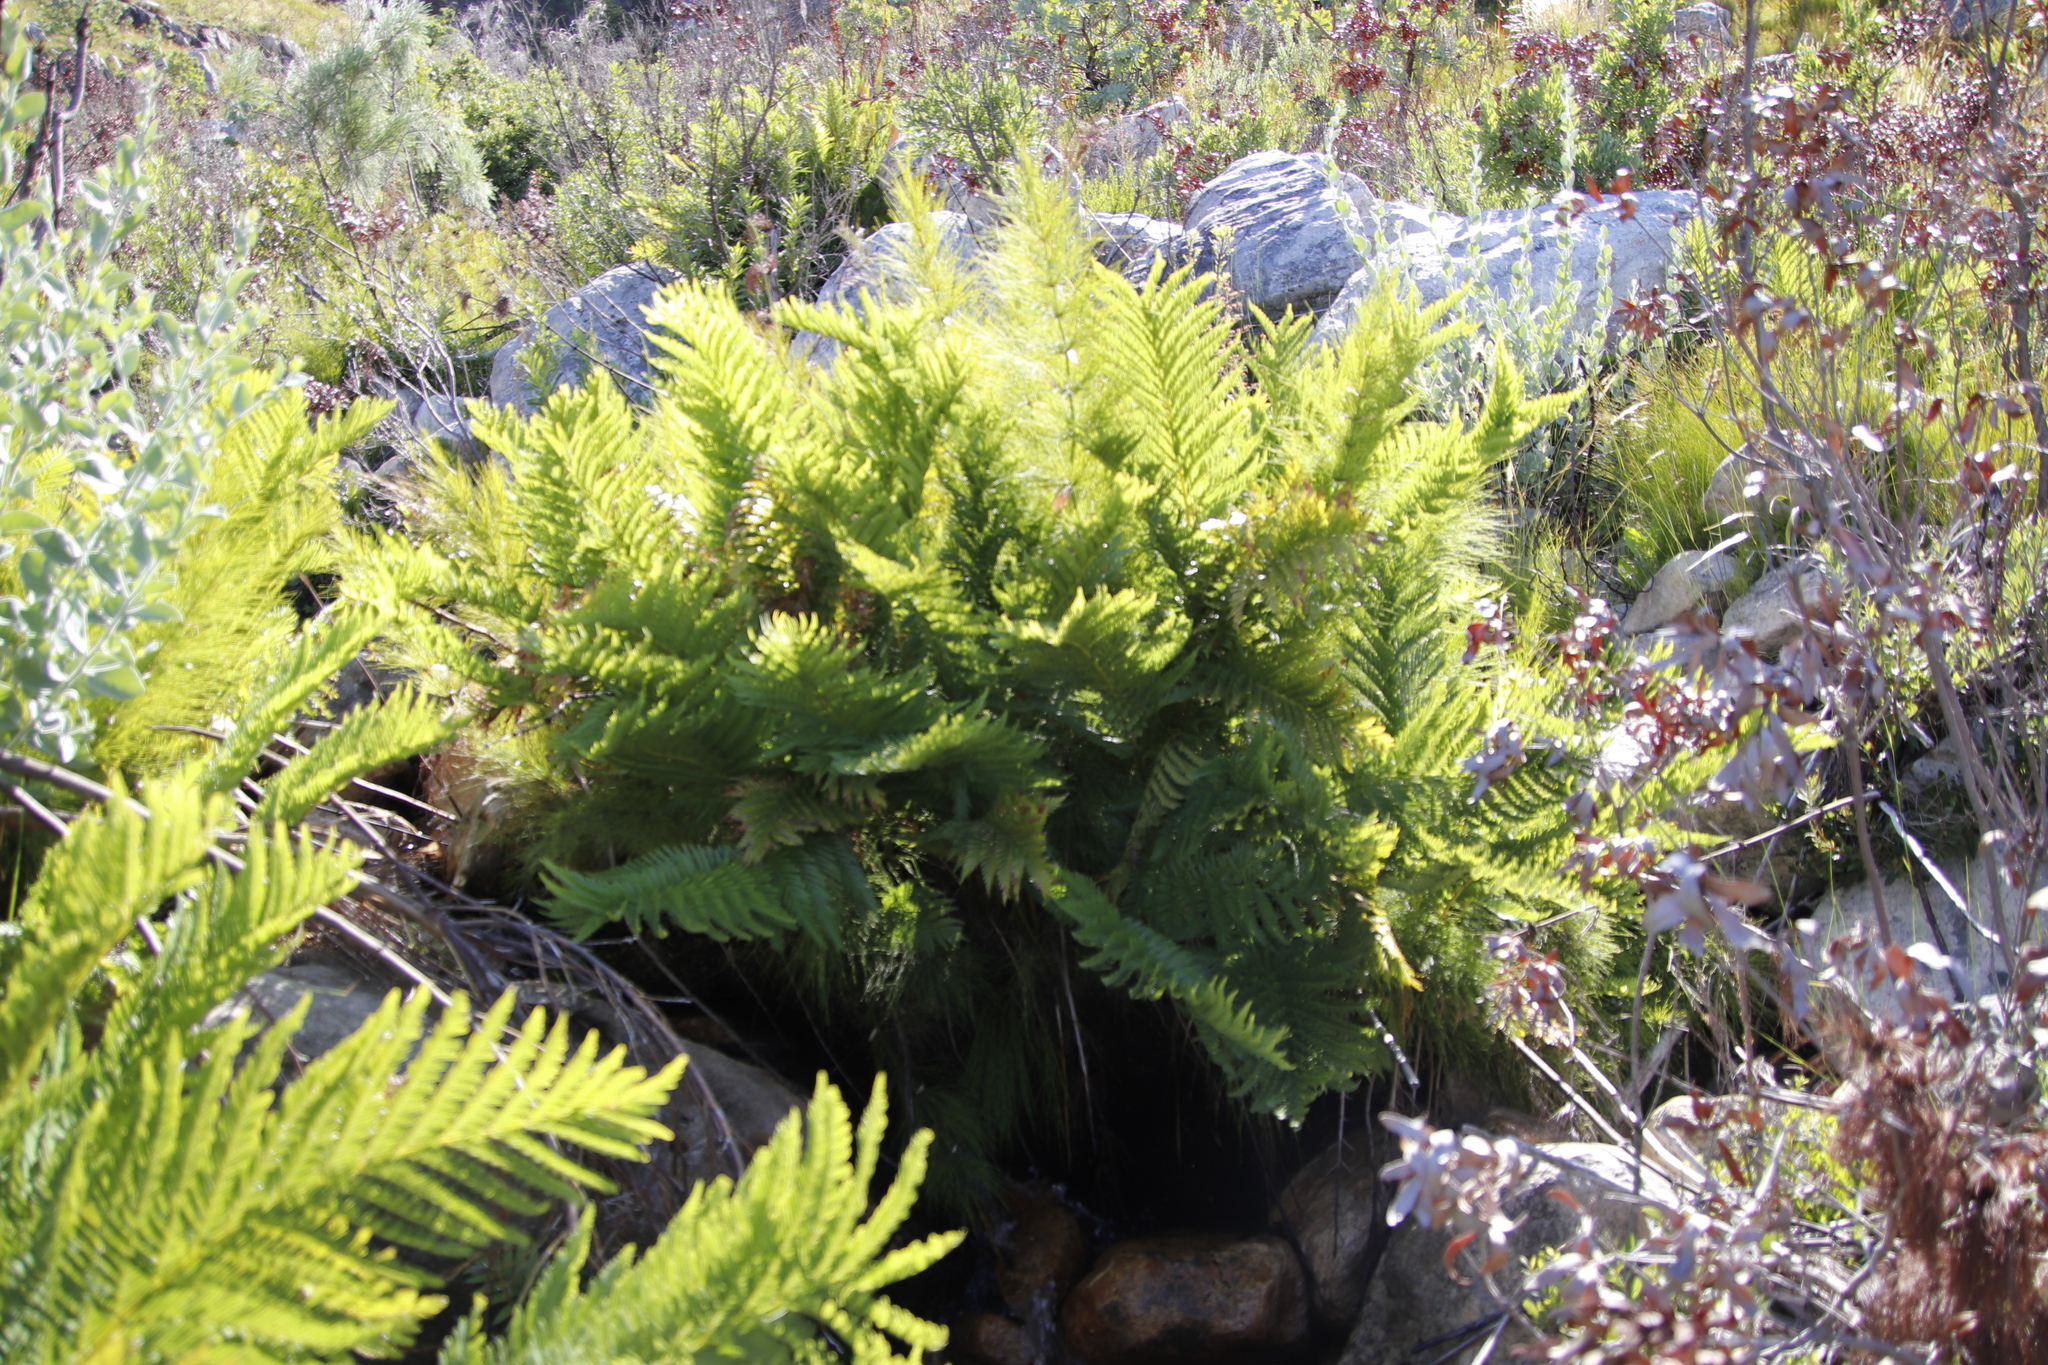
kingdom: Plantae
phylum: Tracheophyta
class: Polypodiopsida
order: Osmundales
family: Osmundaceae
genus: Todea
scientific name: Todea barbara
